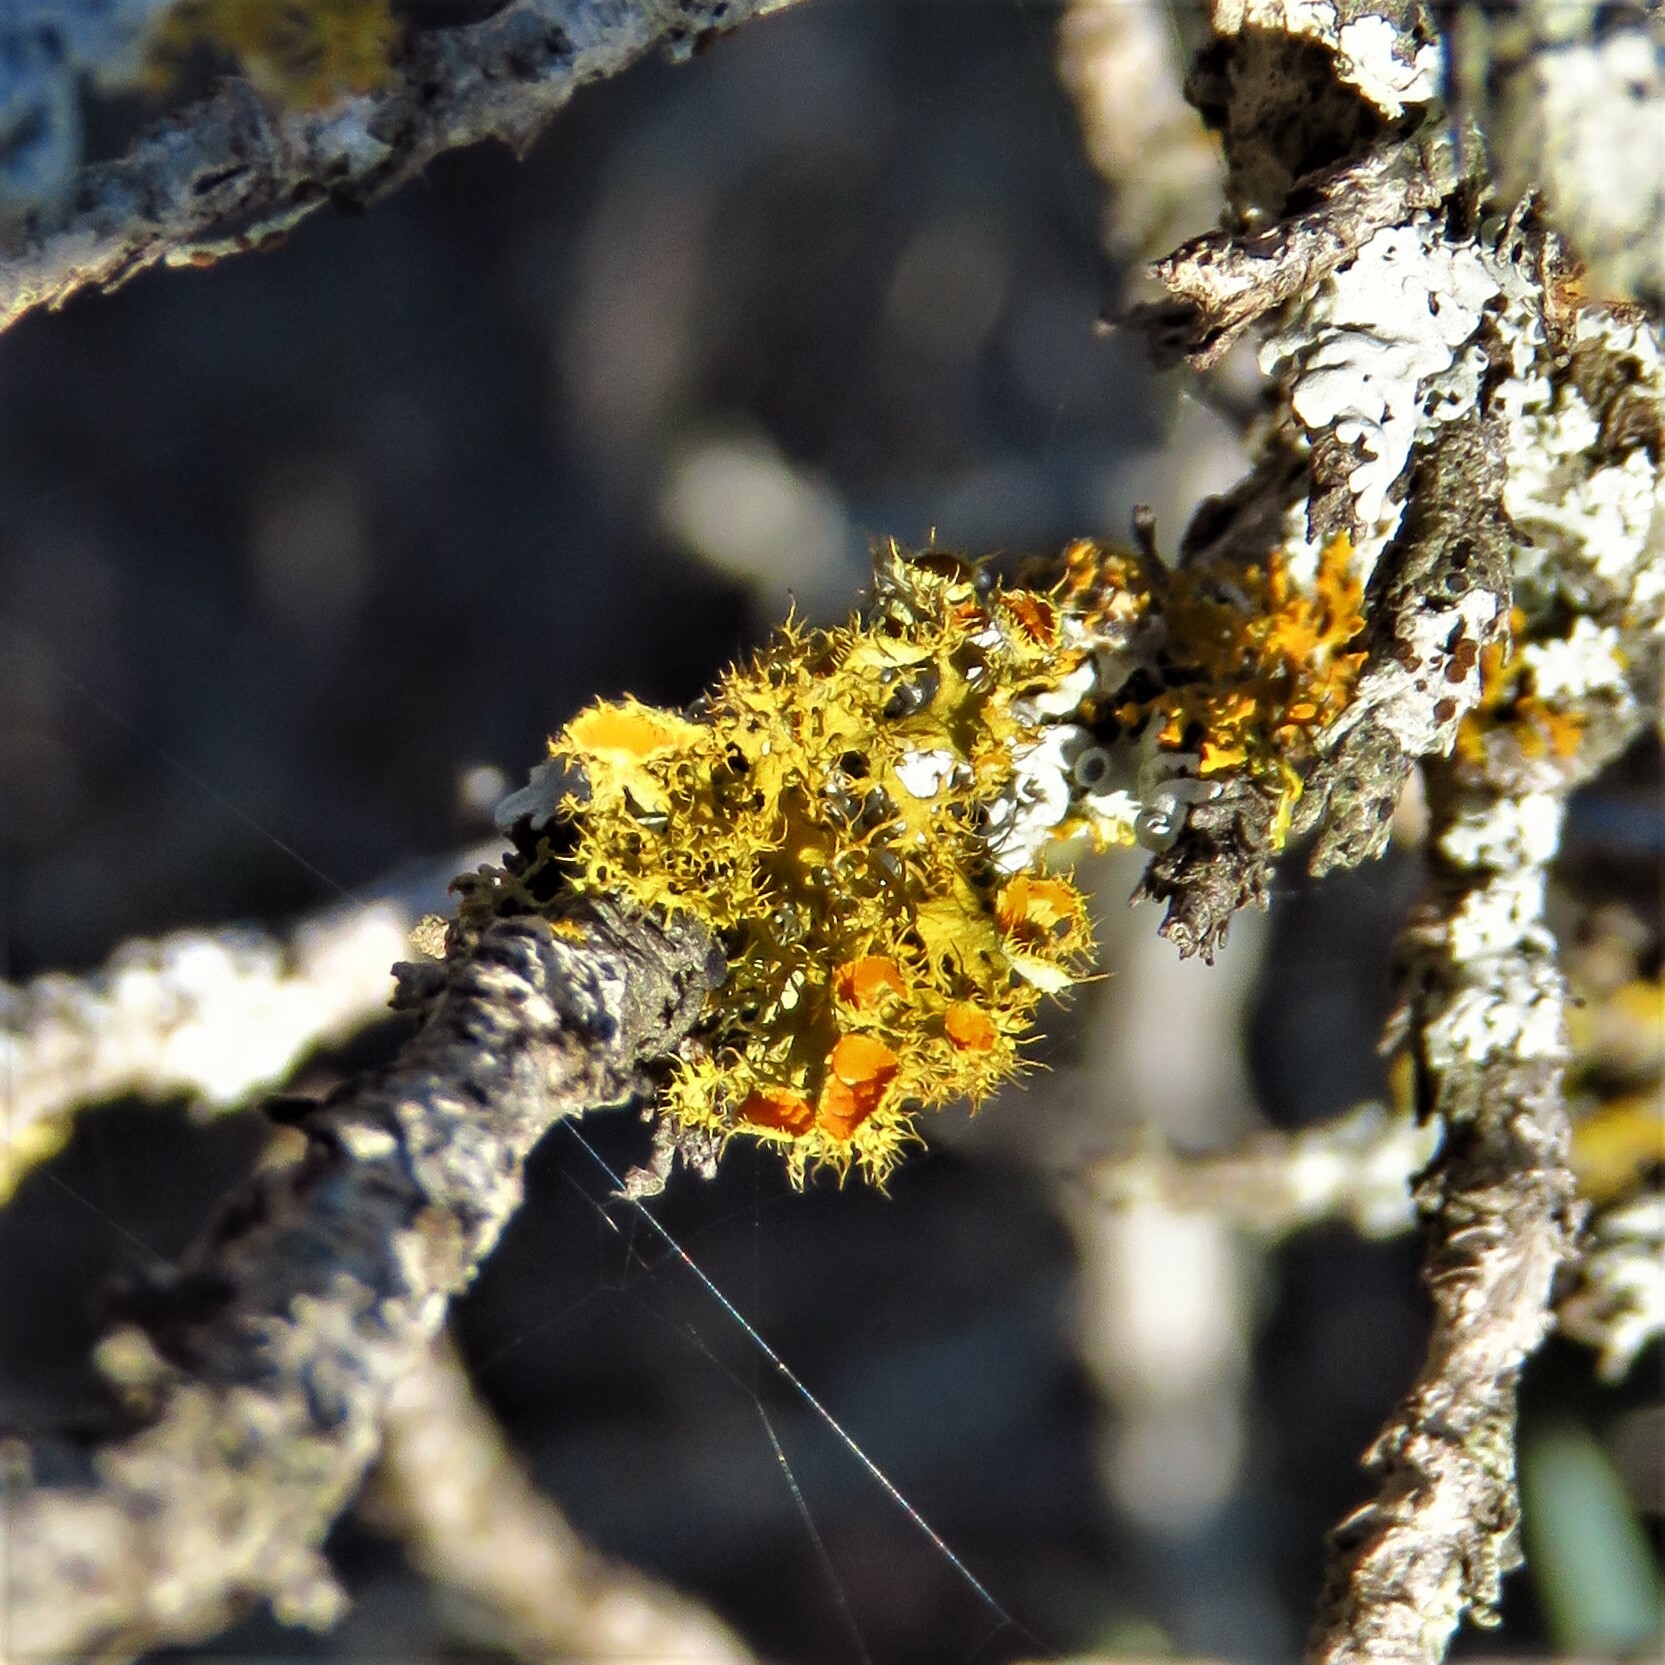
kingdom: Fungi
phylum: Ascomycota
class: Lecanoromycetes
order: Teloschistales
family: Teloschistaceae
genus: Niorma
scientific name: Niorma chrysophthalma
